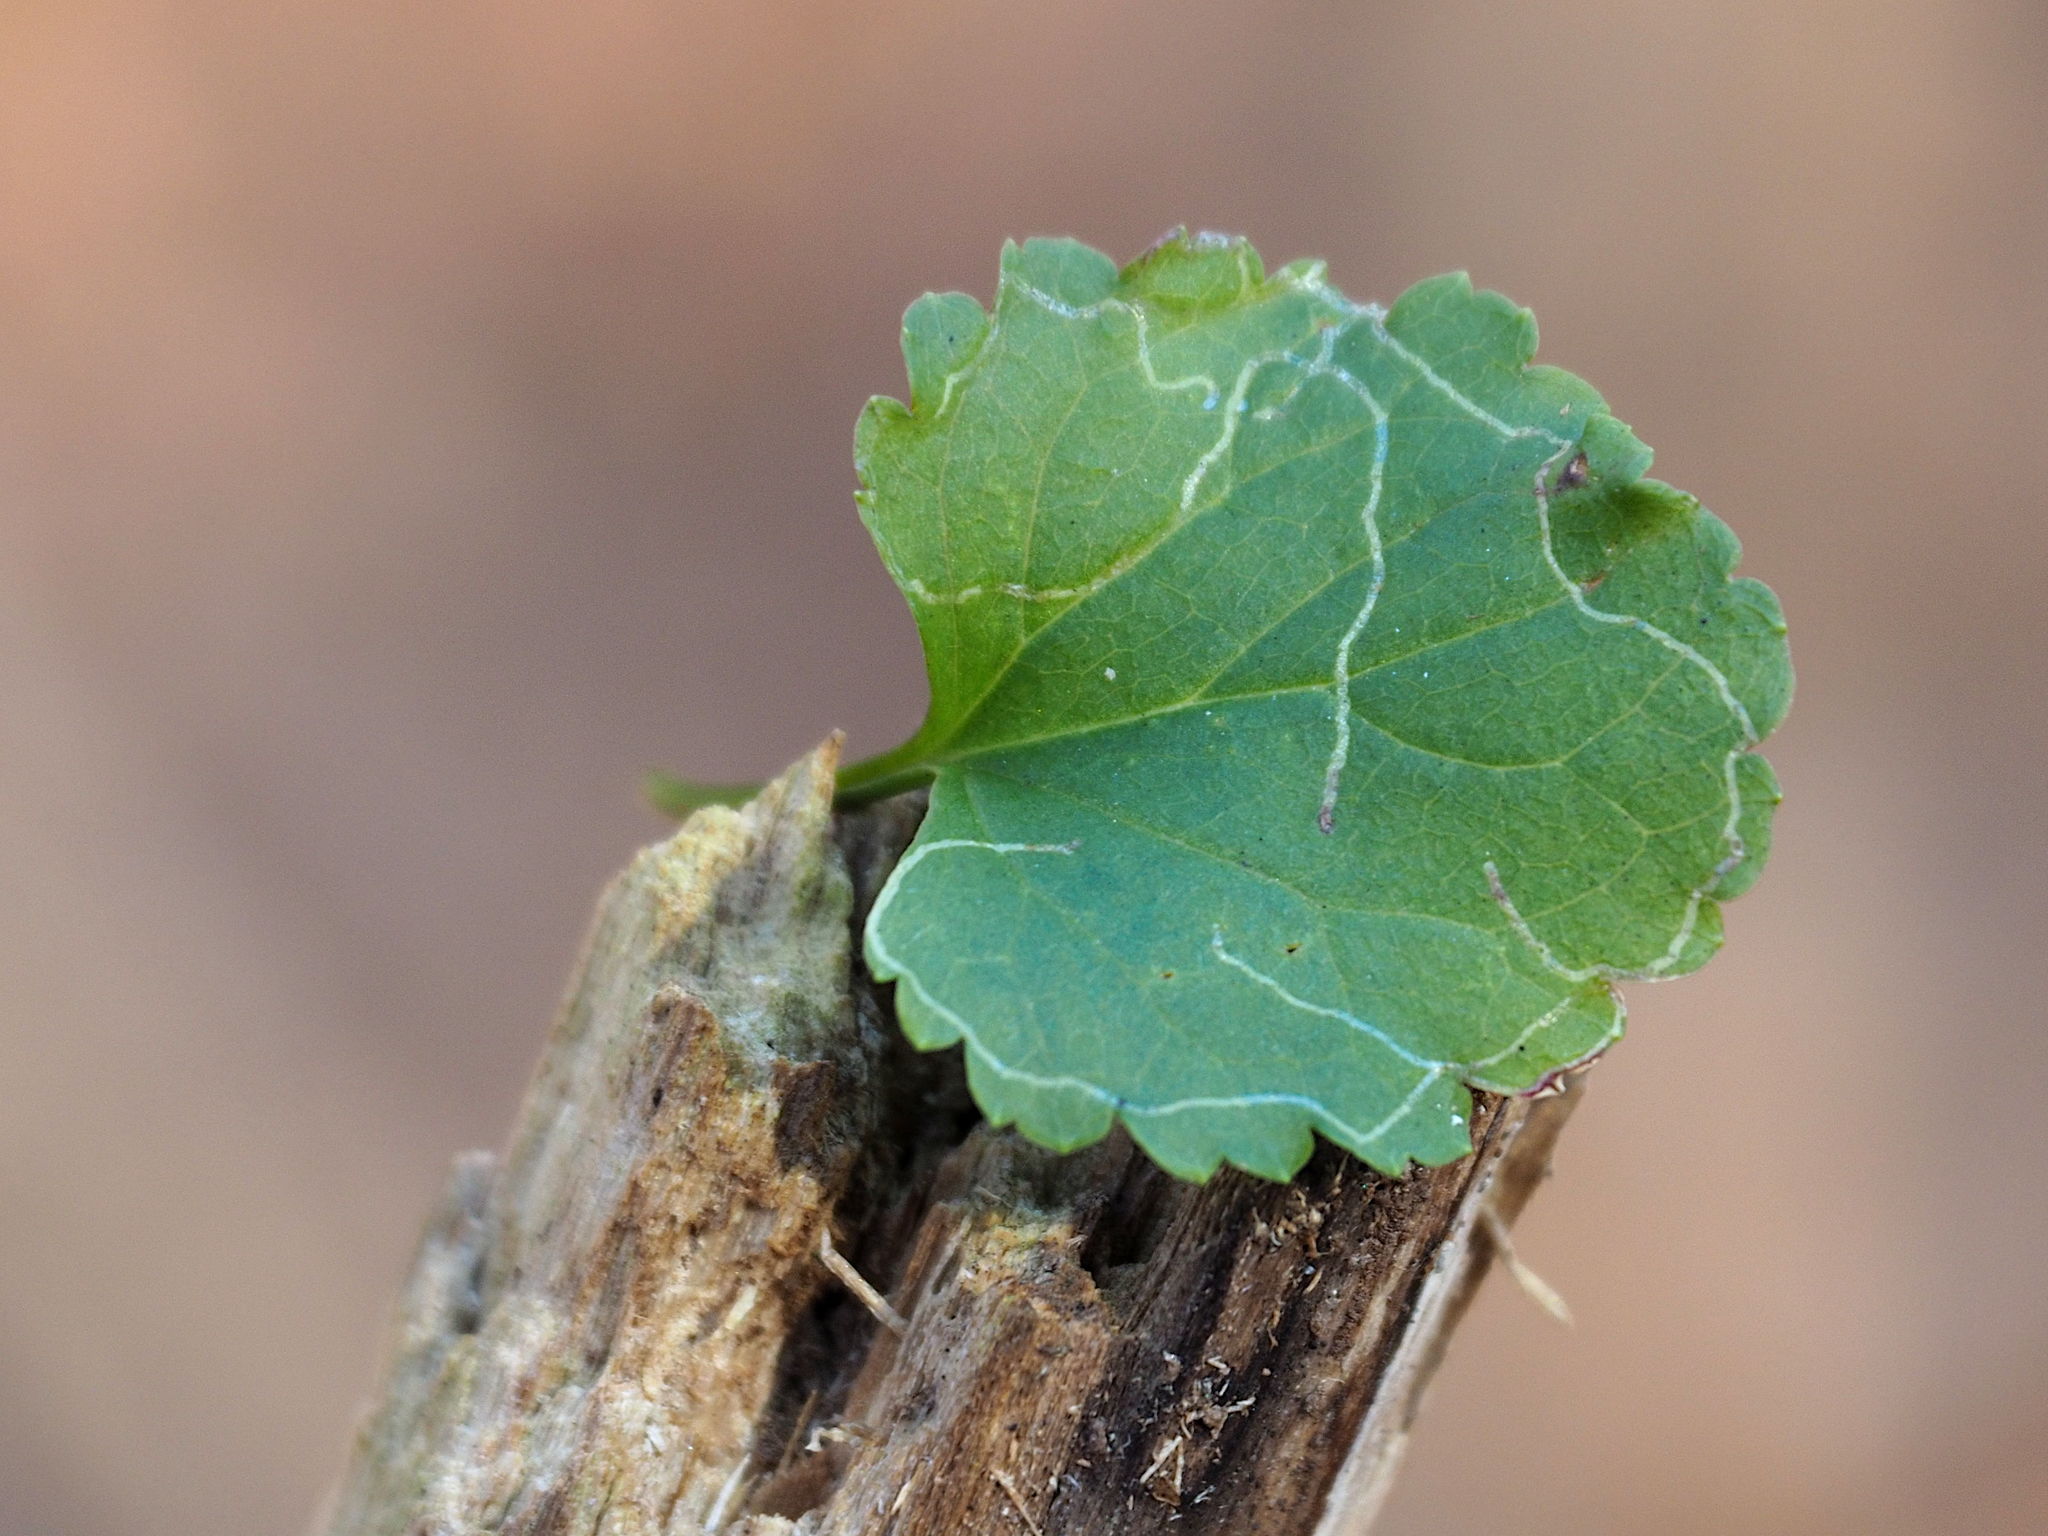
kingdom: Animalia
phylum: Arthropoda
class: Insecta
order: Lepidoptera
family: Gracillariidae
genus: Phyllocnistis
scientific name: Phyllocnistis insignis
